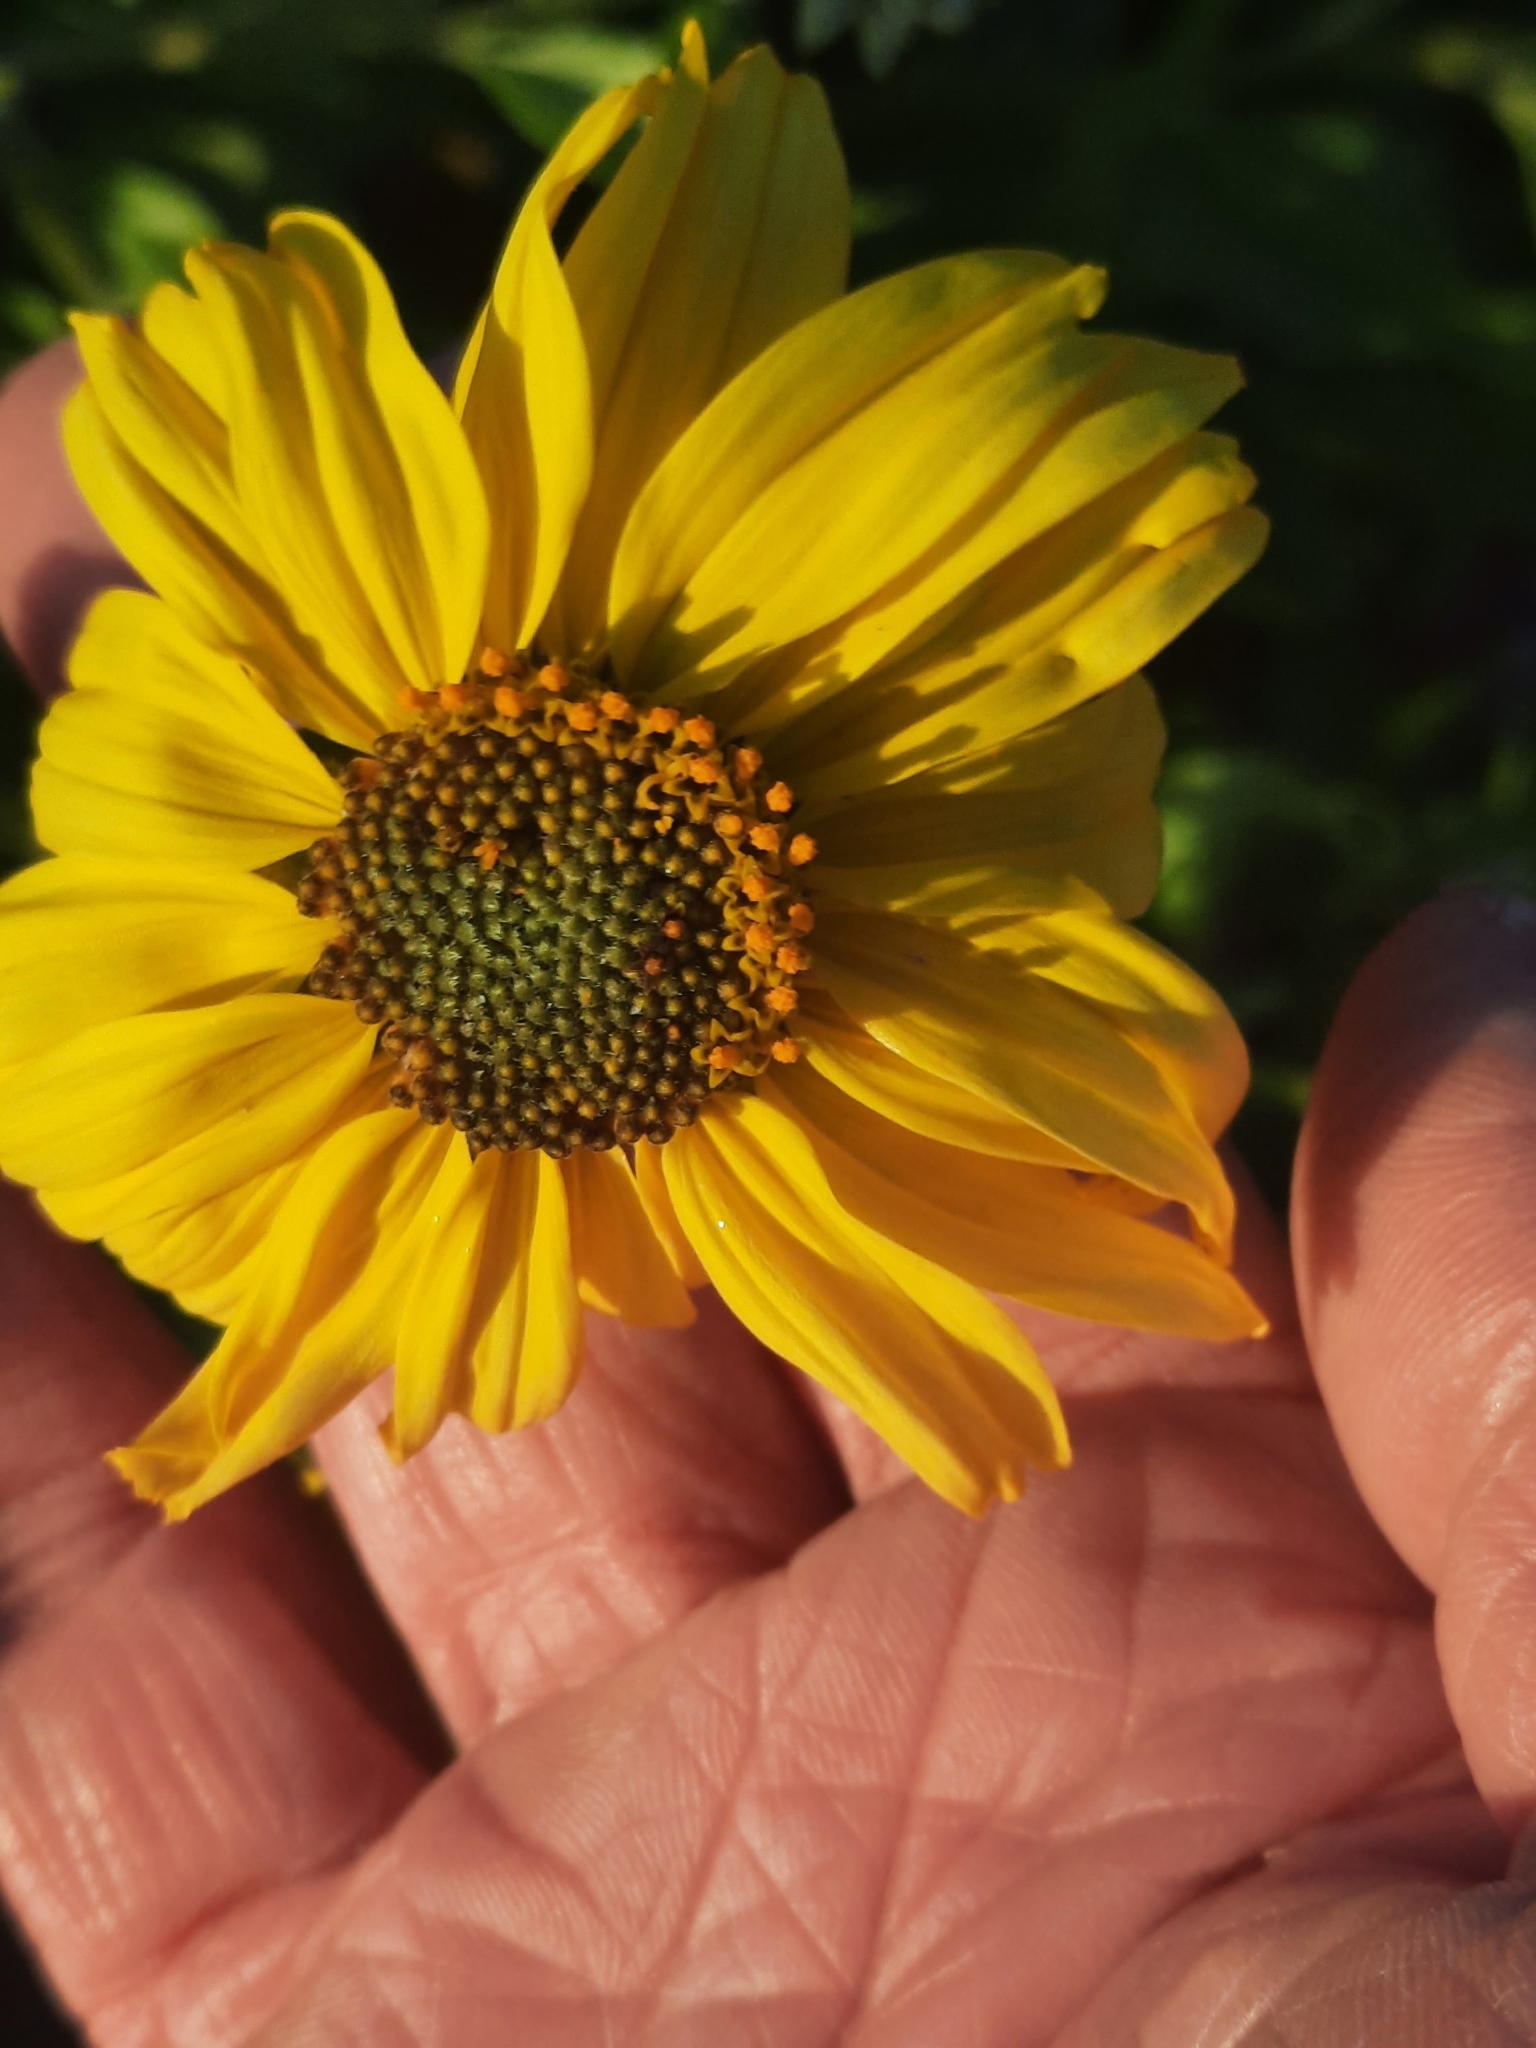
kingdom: Plantae
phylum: Tracheophyta
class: Magnoliopsida
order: Asterales
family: Asteraceae
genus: Encelia
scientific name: Encelia californica
